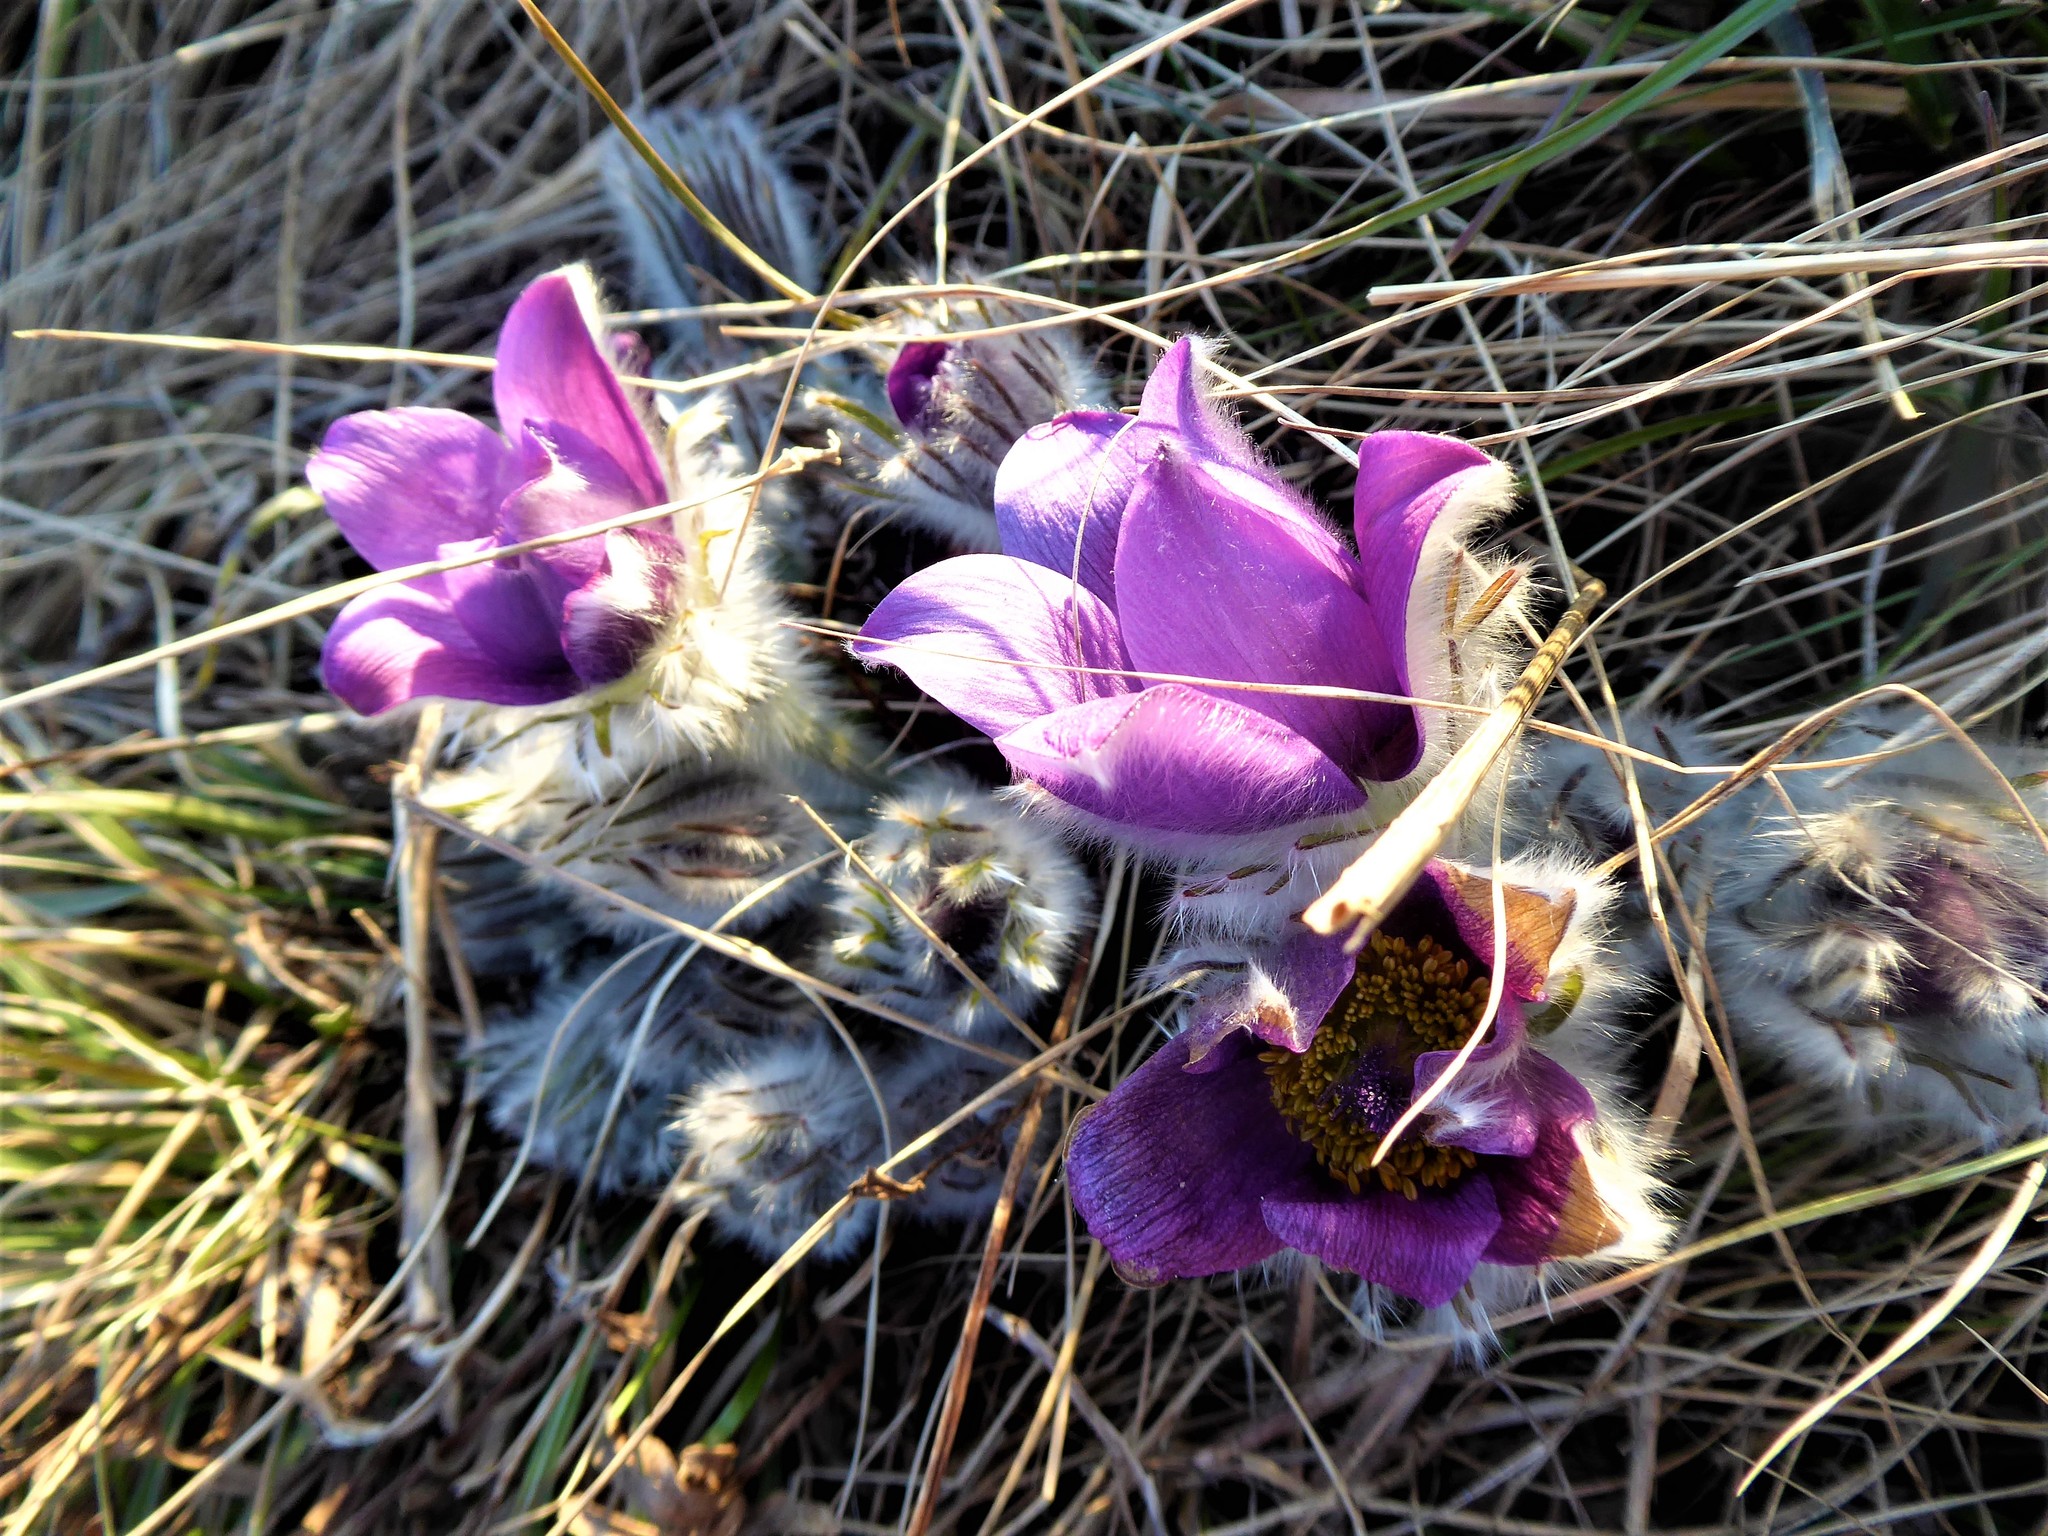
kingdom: Plantae
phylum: Tracheophyta
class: Magnoliopsida
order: Ranunculales
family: Ranunculaceae
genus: Pulsatilla
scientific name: Pulsatilla grandis
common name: Greater pasque flower
